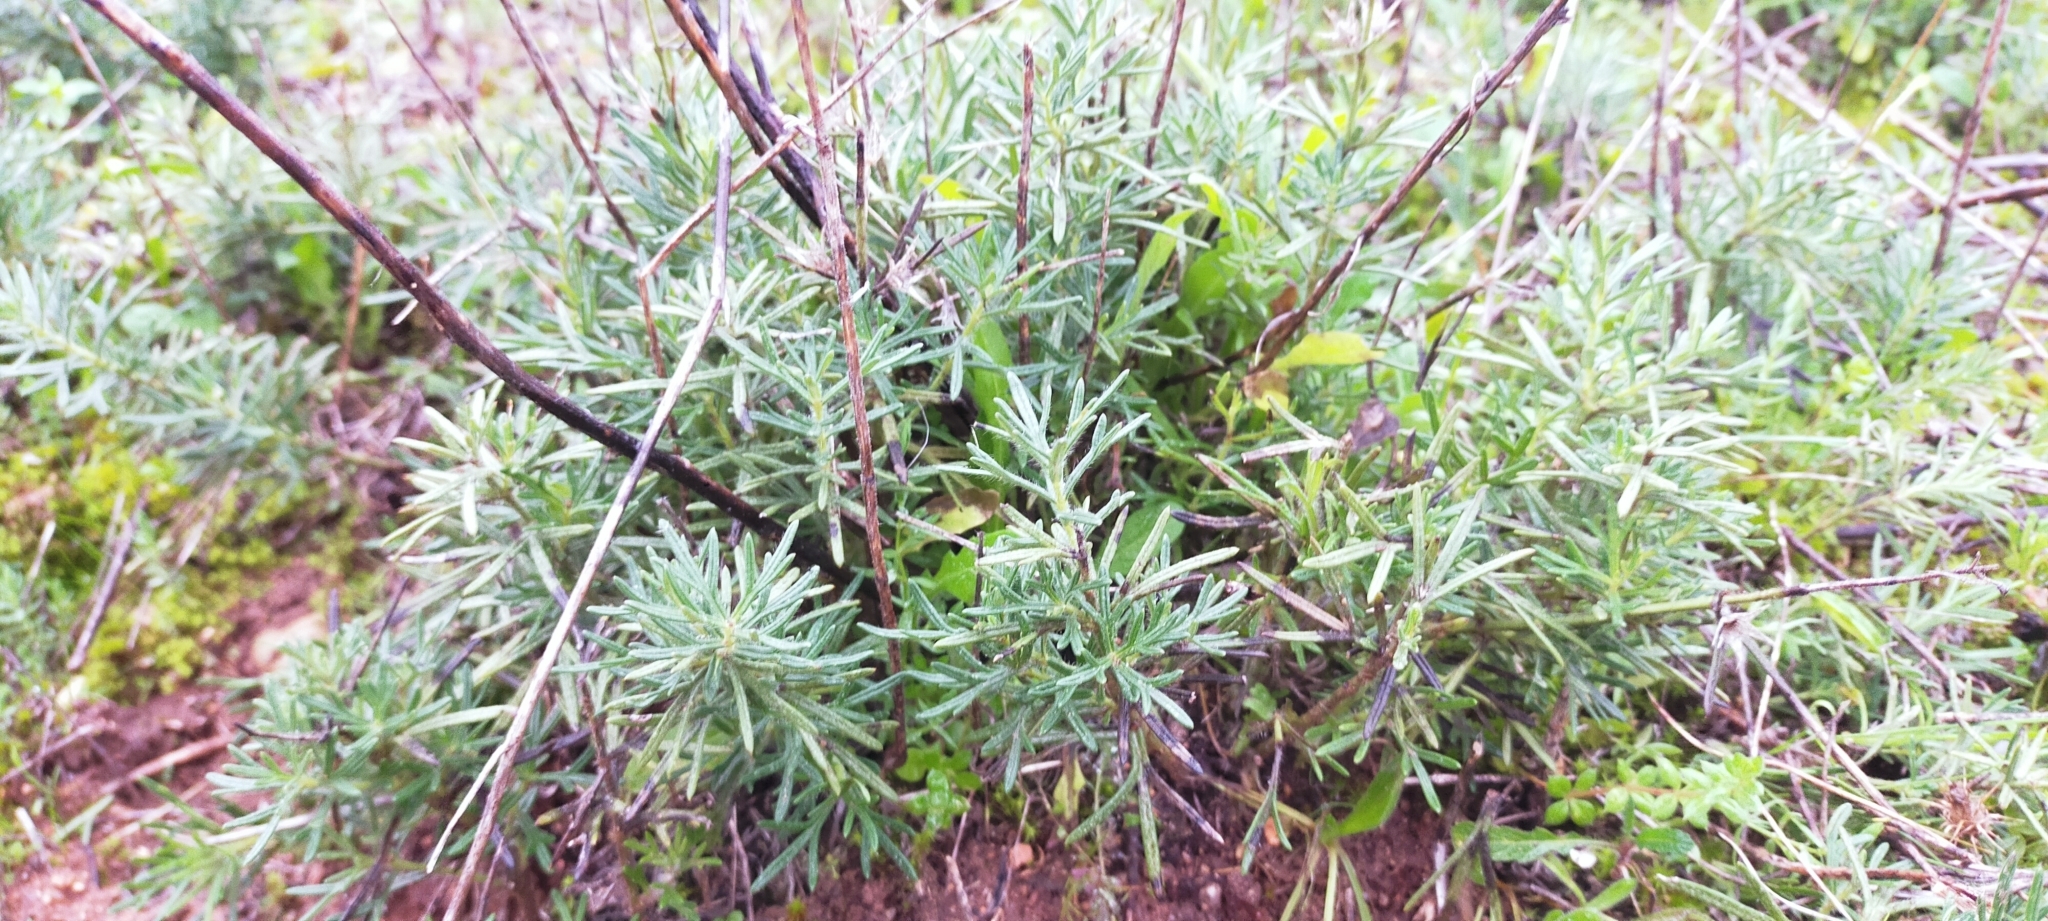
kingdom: Plantae
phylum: Tracheophyta
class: Magnoliopsida
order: Lamiales
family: Lamiaceae
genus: Teucrium
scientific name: Teucrium pseudochamaepitys
